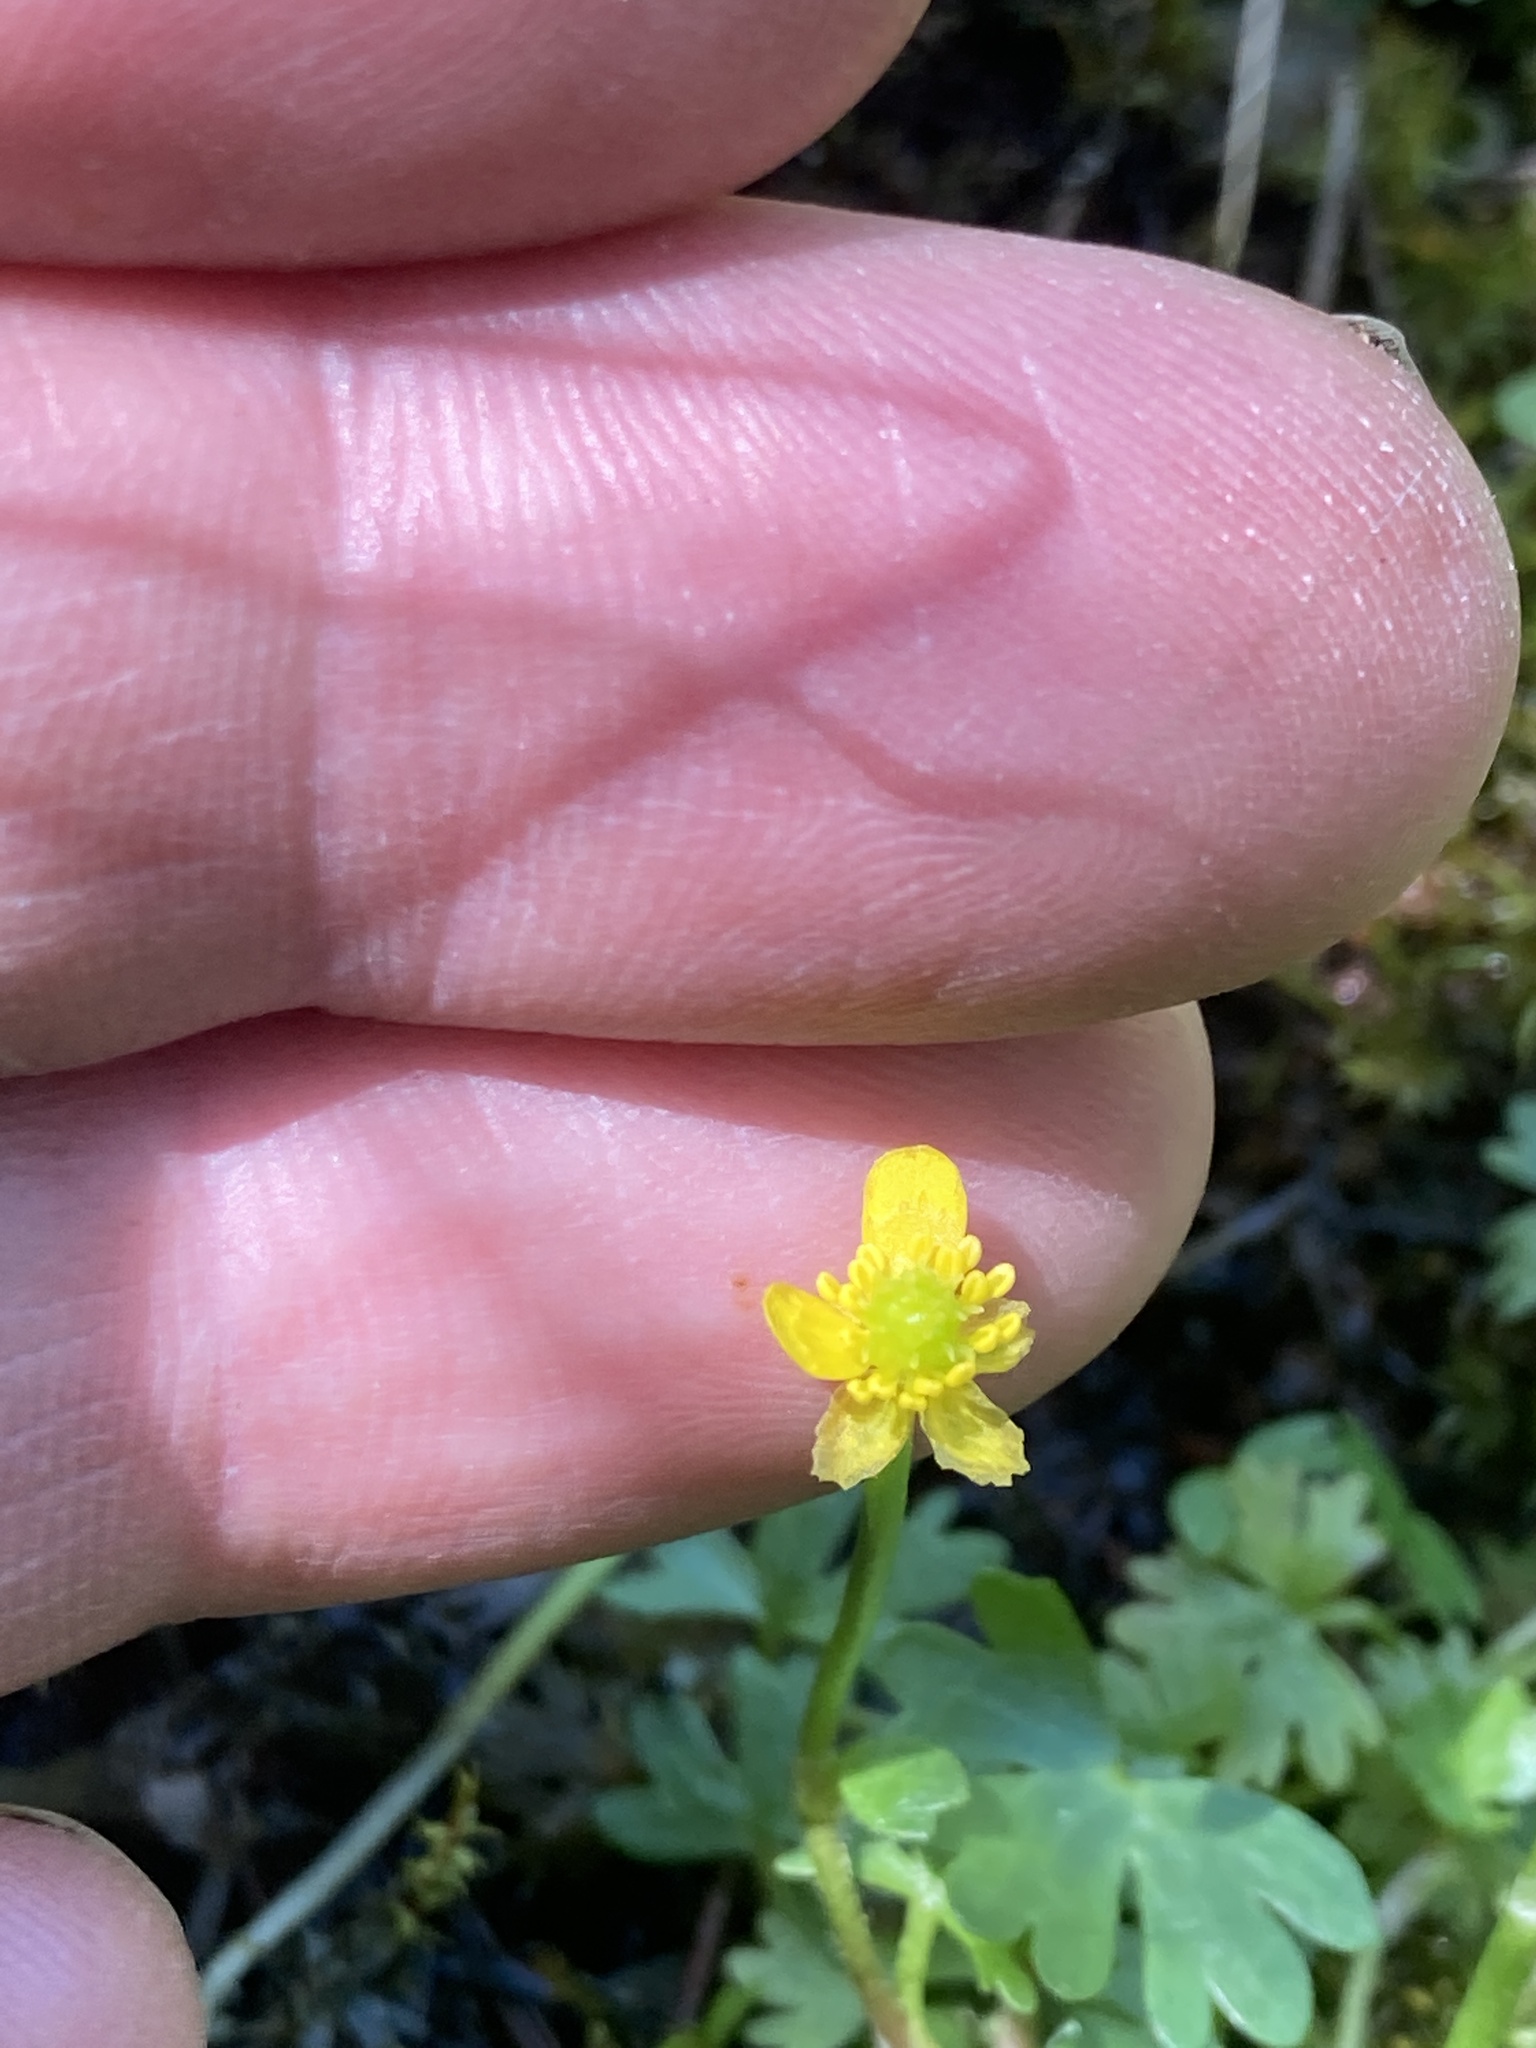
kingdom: Plantae
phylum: Tracheophyta
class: Magnoliopsida
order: Ranunculales
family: Ranunculaceae
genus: Ranunculus
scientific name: Ranunculus gmelinii
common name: Gmelin's buttercup
